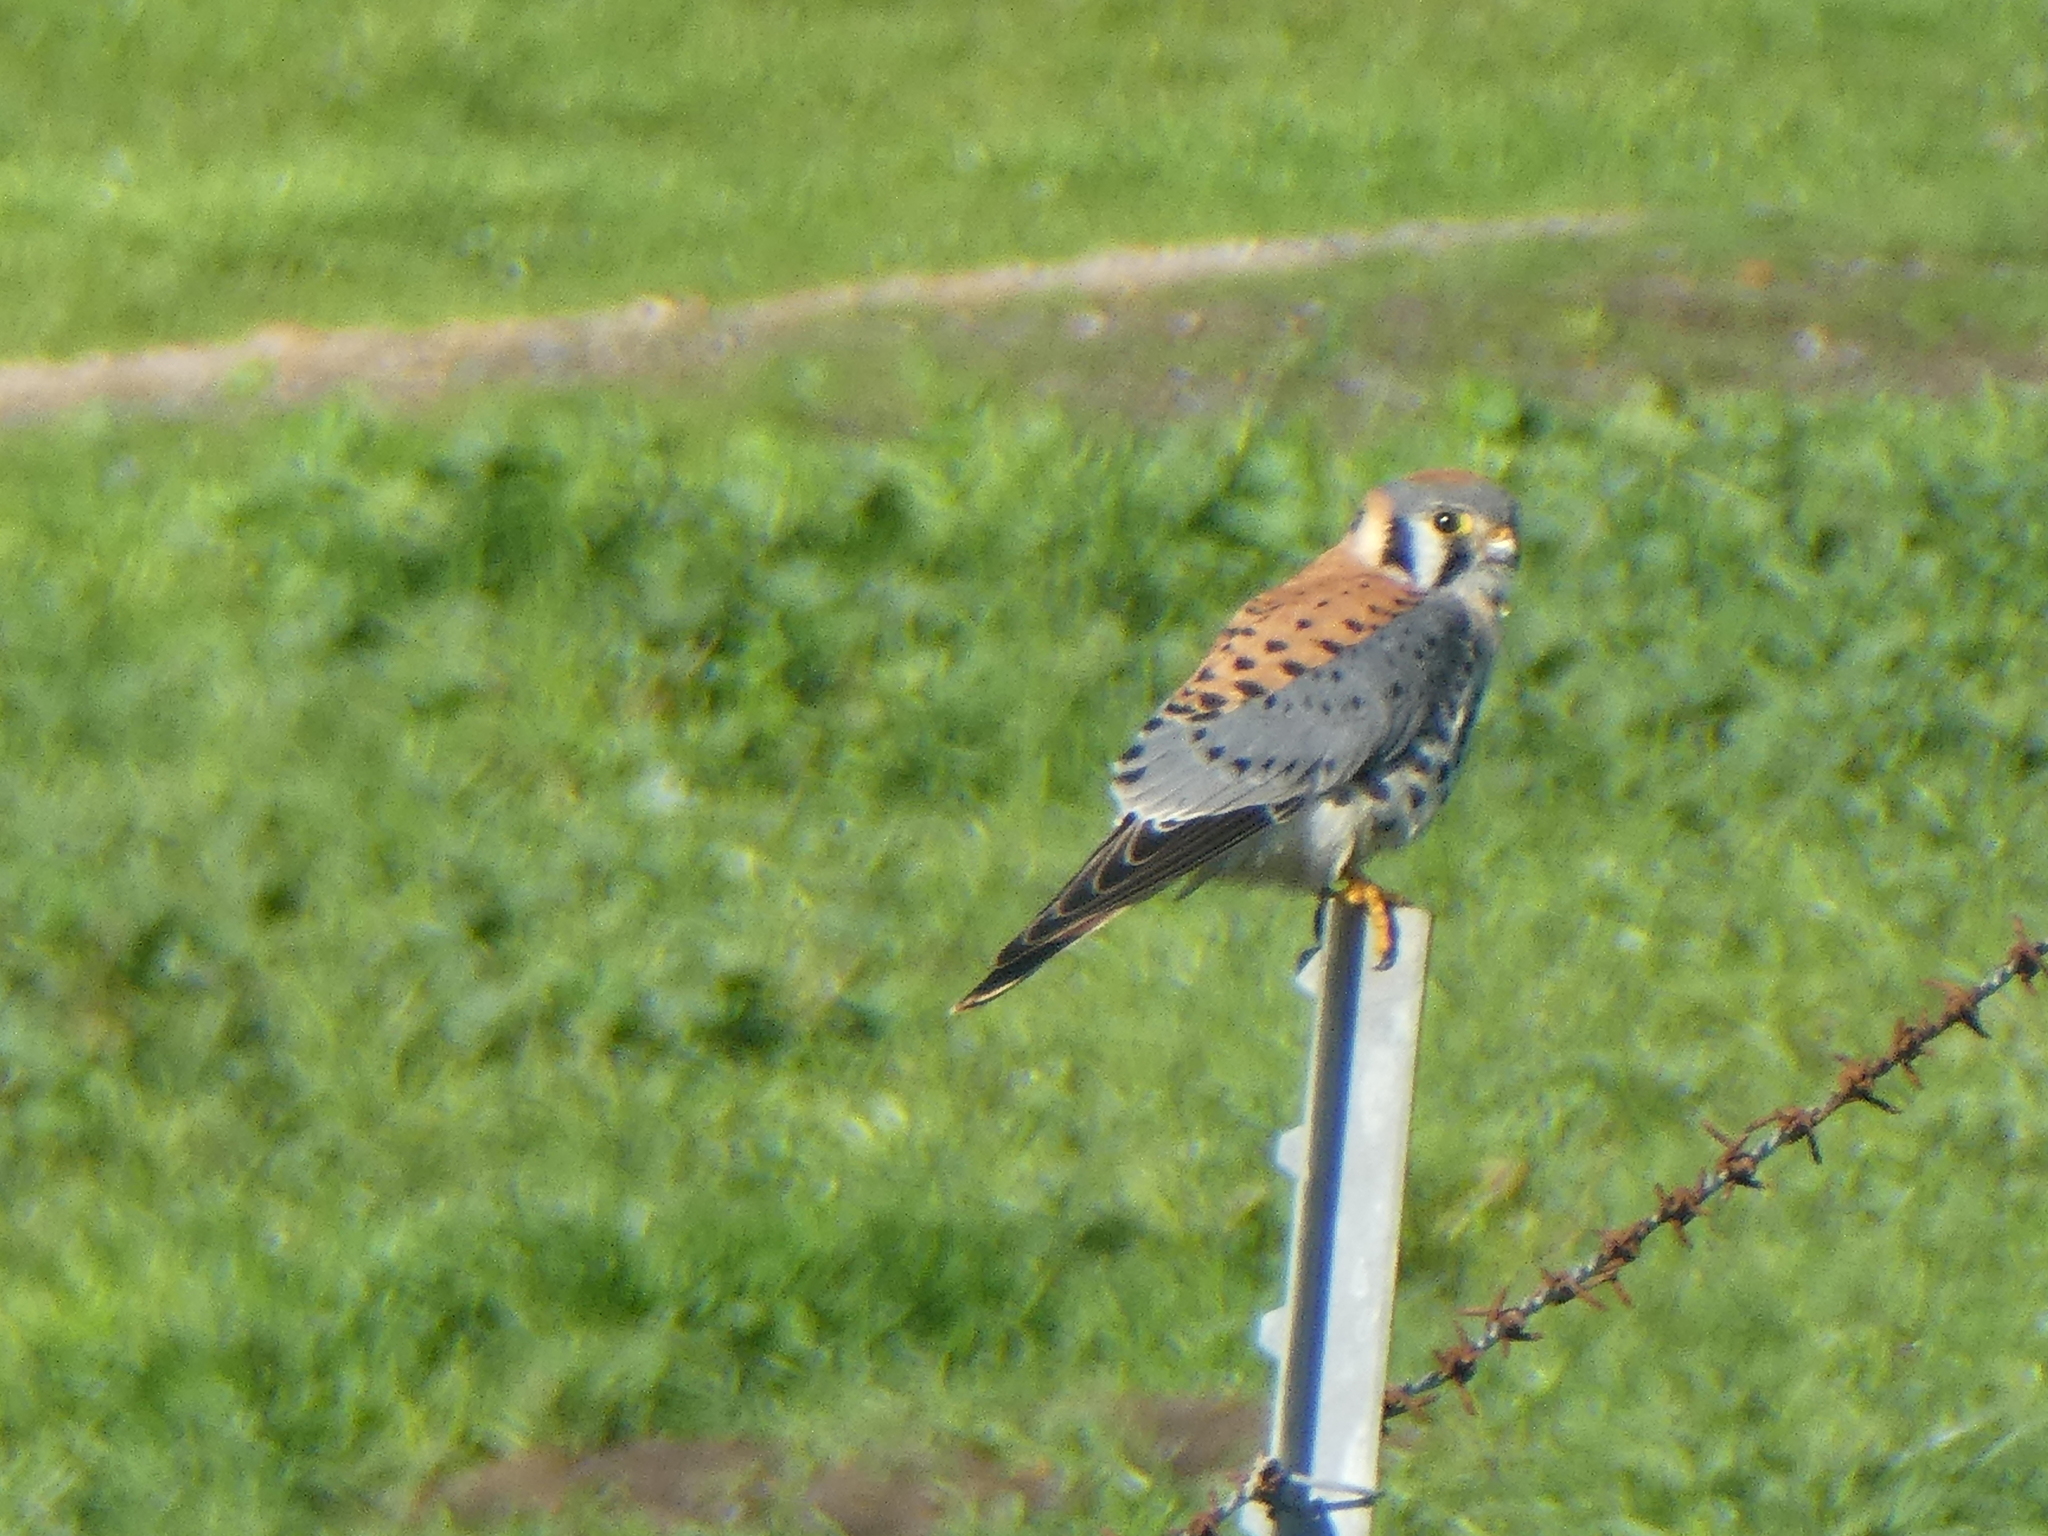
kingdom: Animalia
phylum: Chordata
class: Aves
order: Falconiformes
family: Falconidae
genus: Falco
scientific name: Falco sparverius
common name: American kestrel
